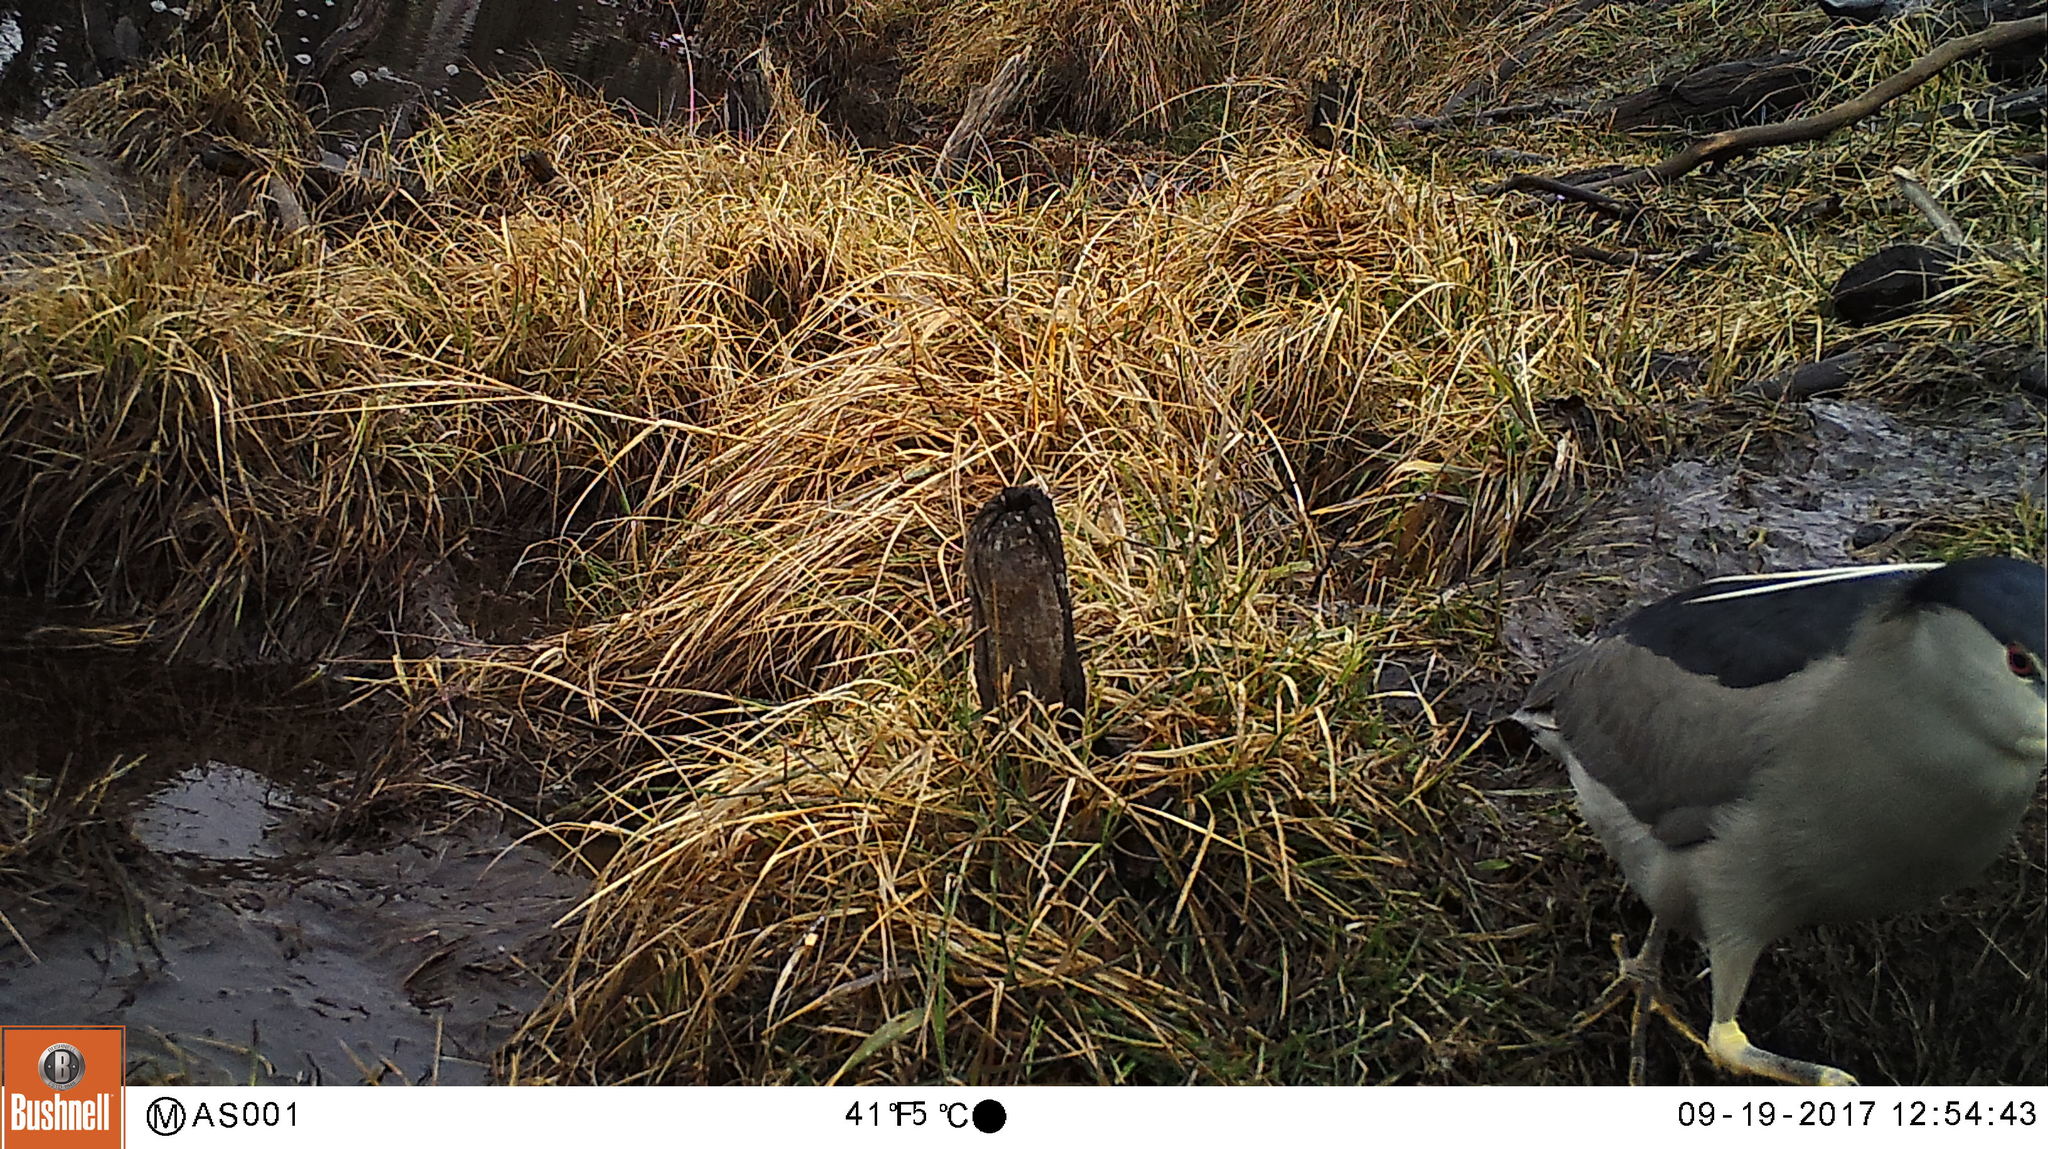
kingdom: Animalia
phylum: Chordata
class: Aves
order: Pelecaniformes
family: Ardeidae
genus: Nycticorax
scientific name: Nycticorax nycticorax
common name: Black-crowned night heron
